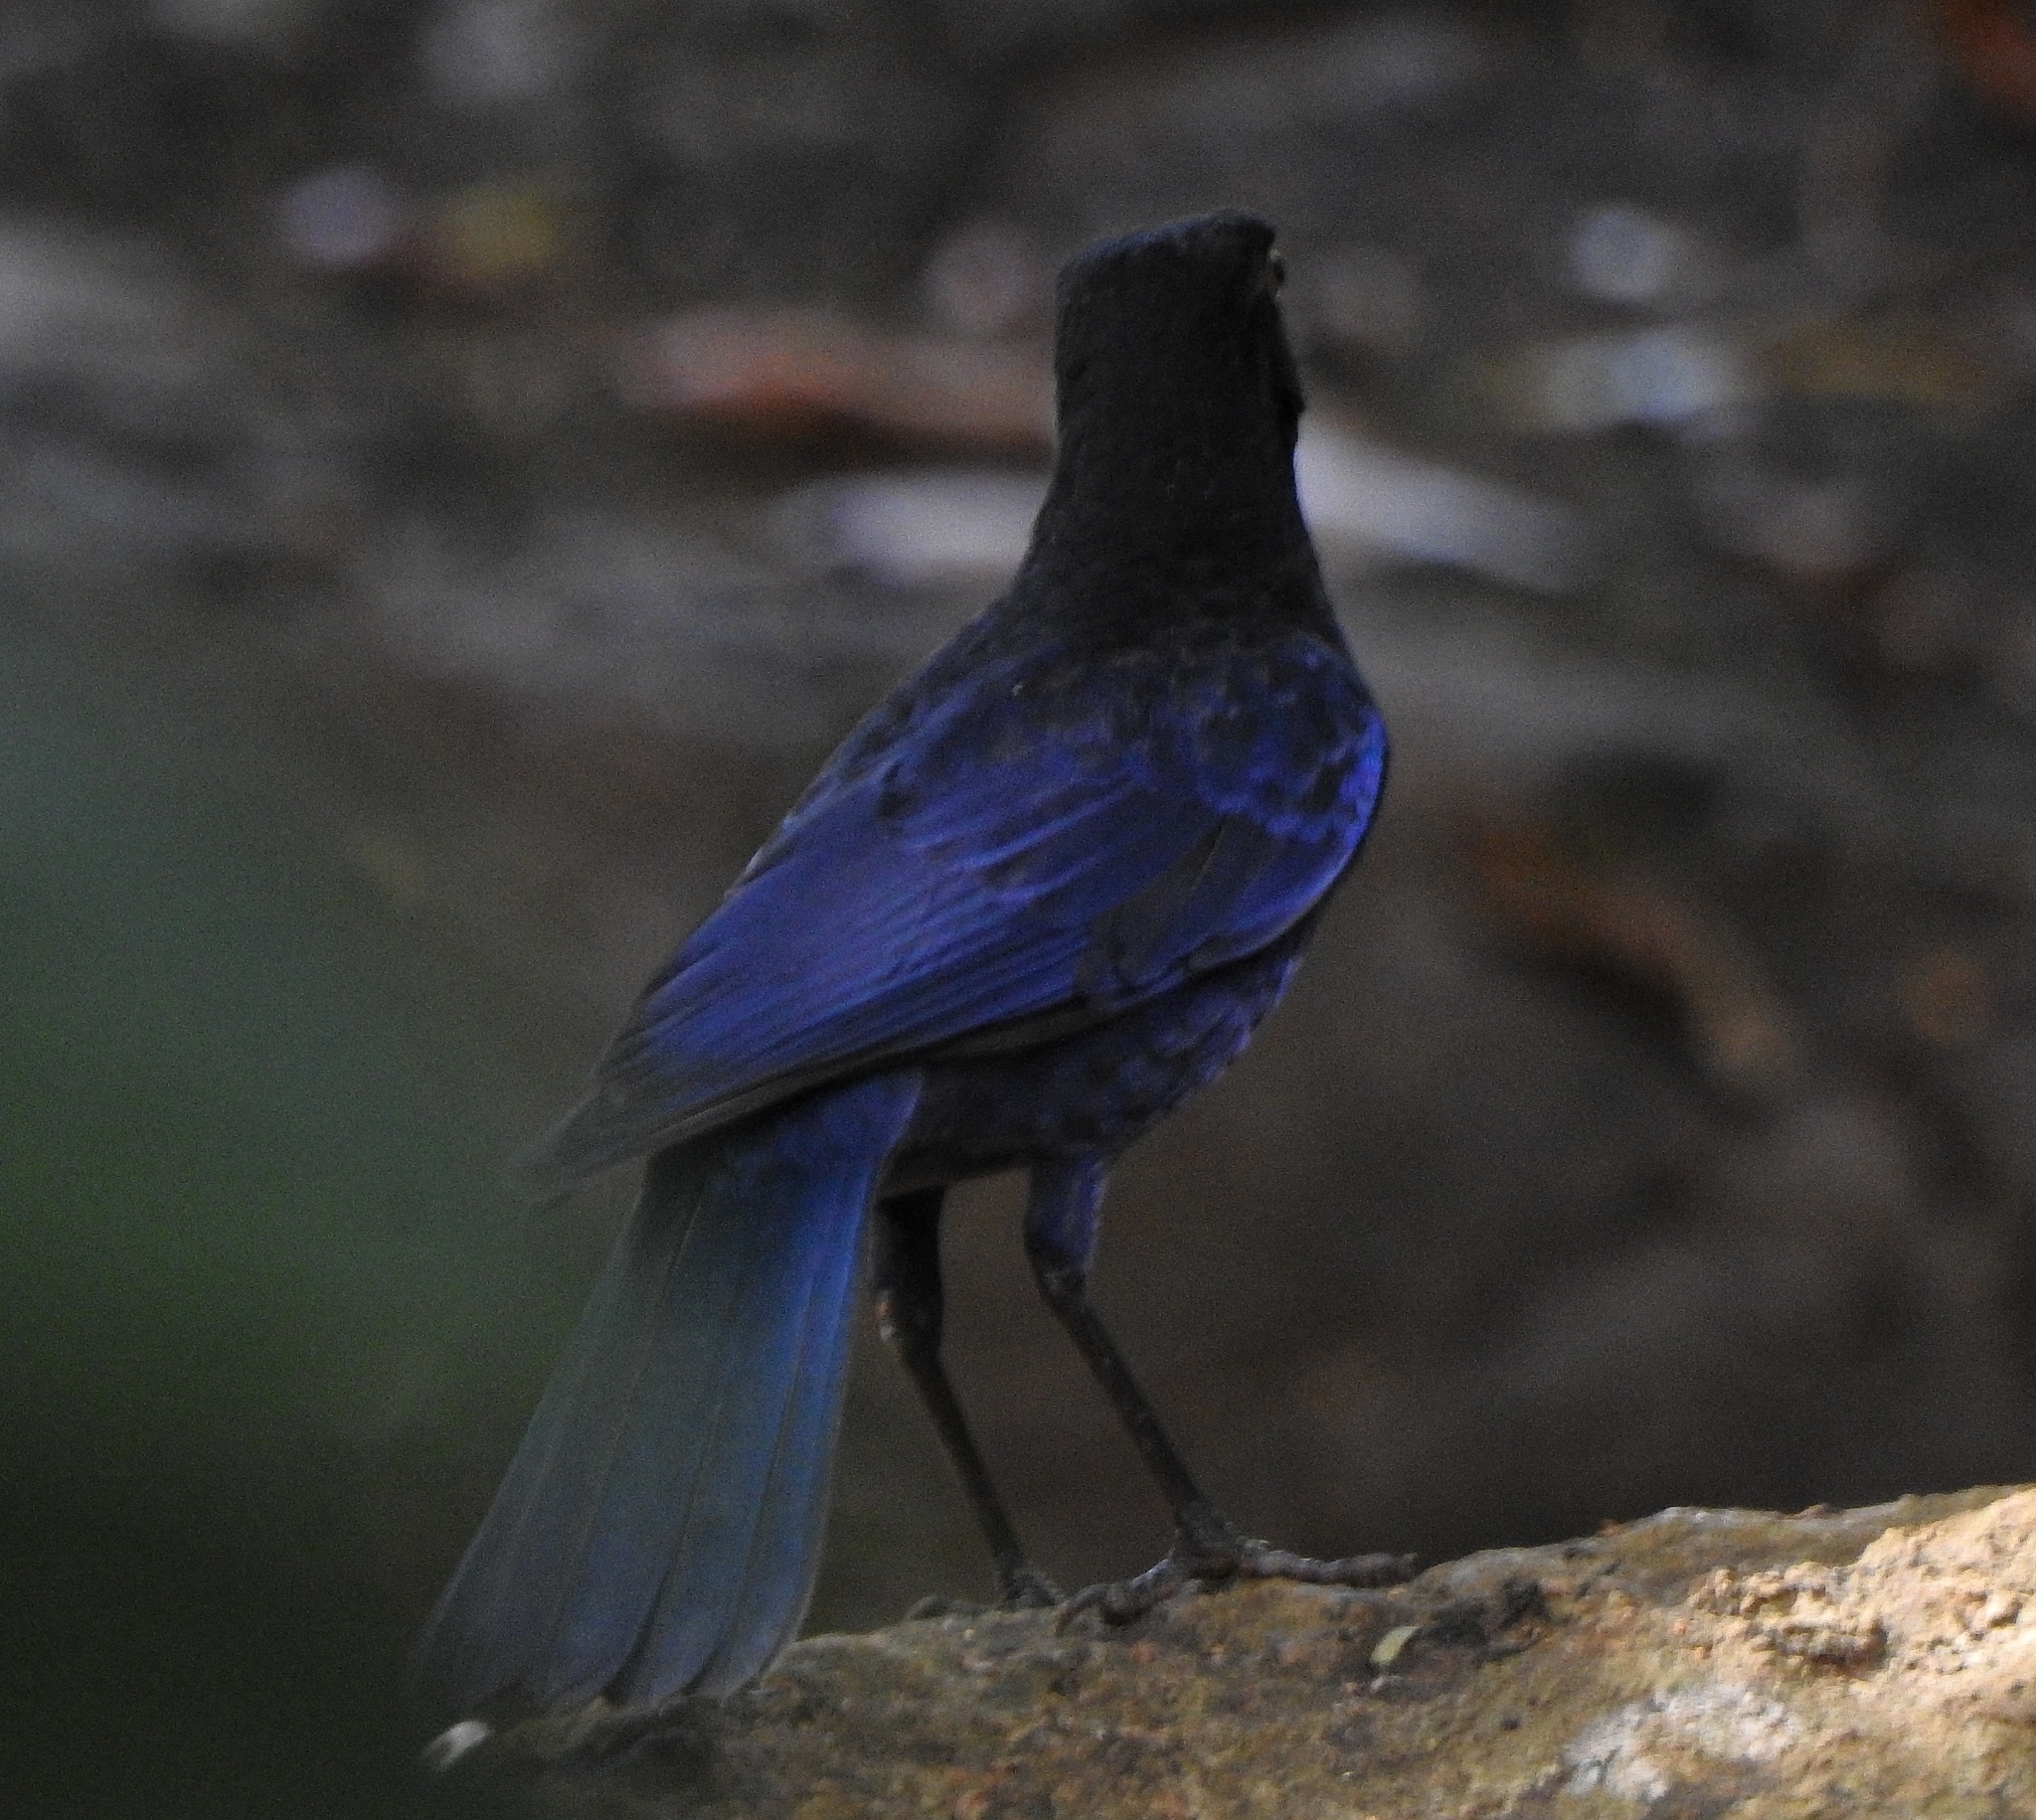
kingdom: Animalia
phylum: Chordata
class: Aves
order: Passeriformes
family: Muscicapidae
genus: Myophonus
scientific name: Myophonus horsfieldii
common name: Malabar whistling-thrush
